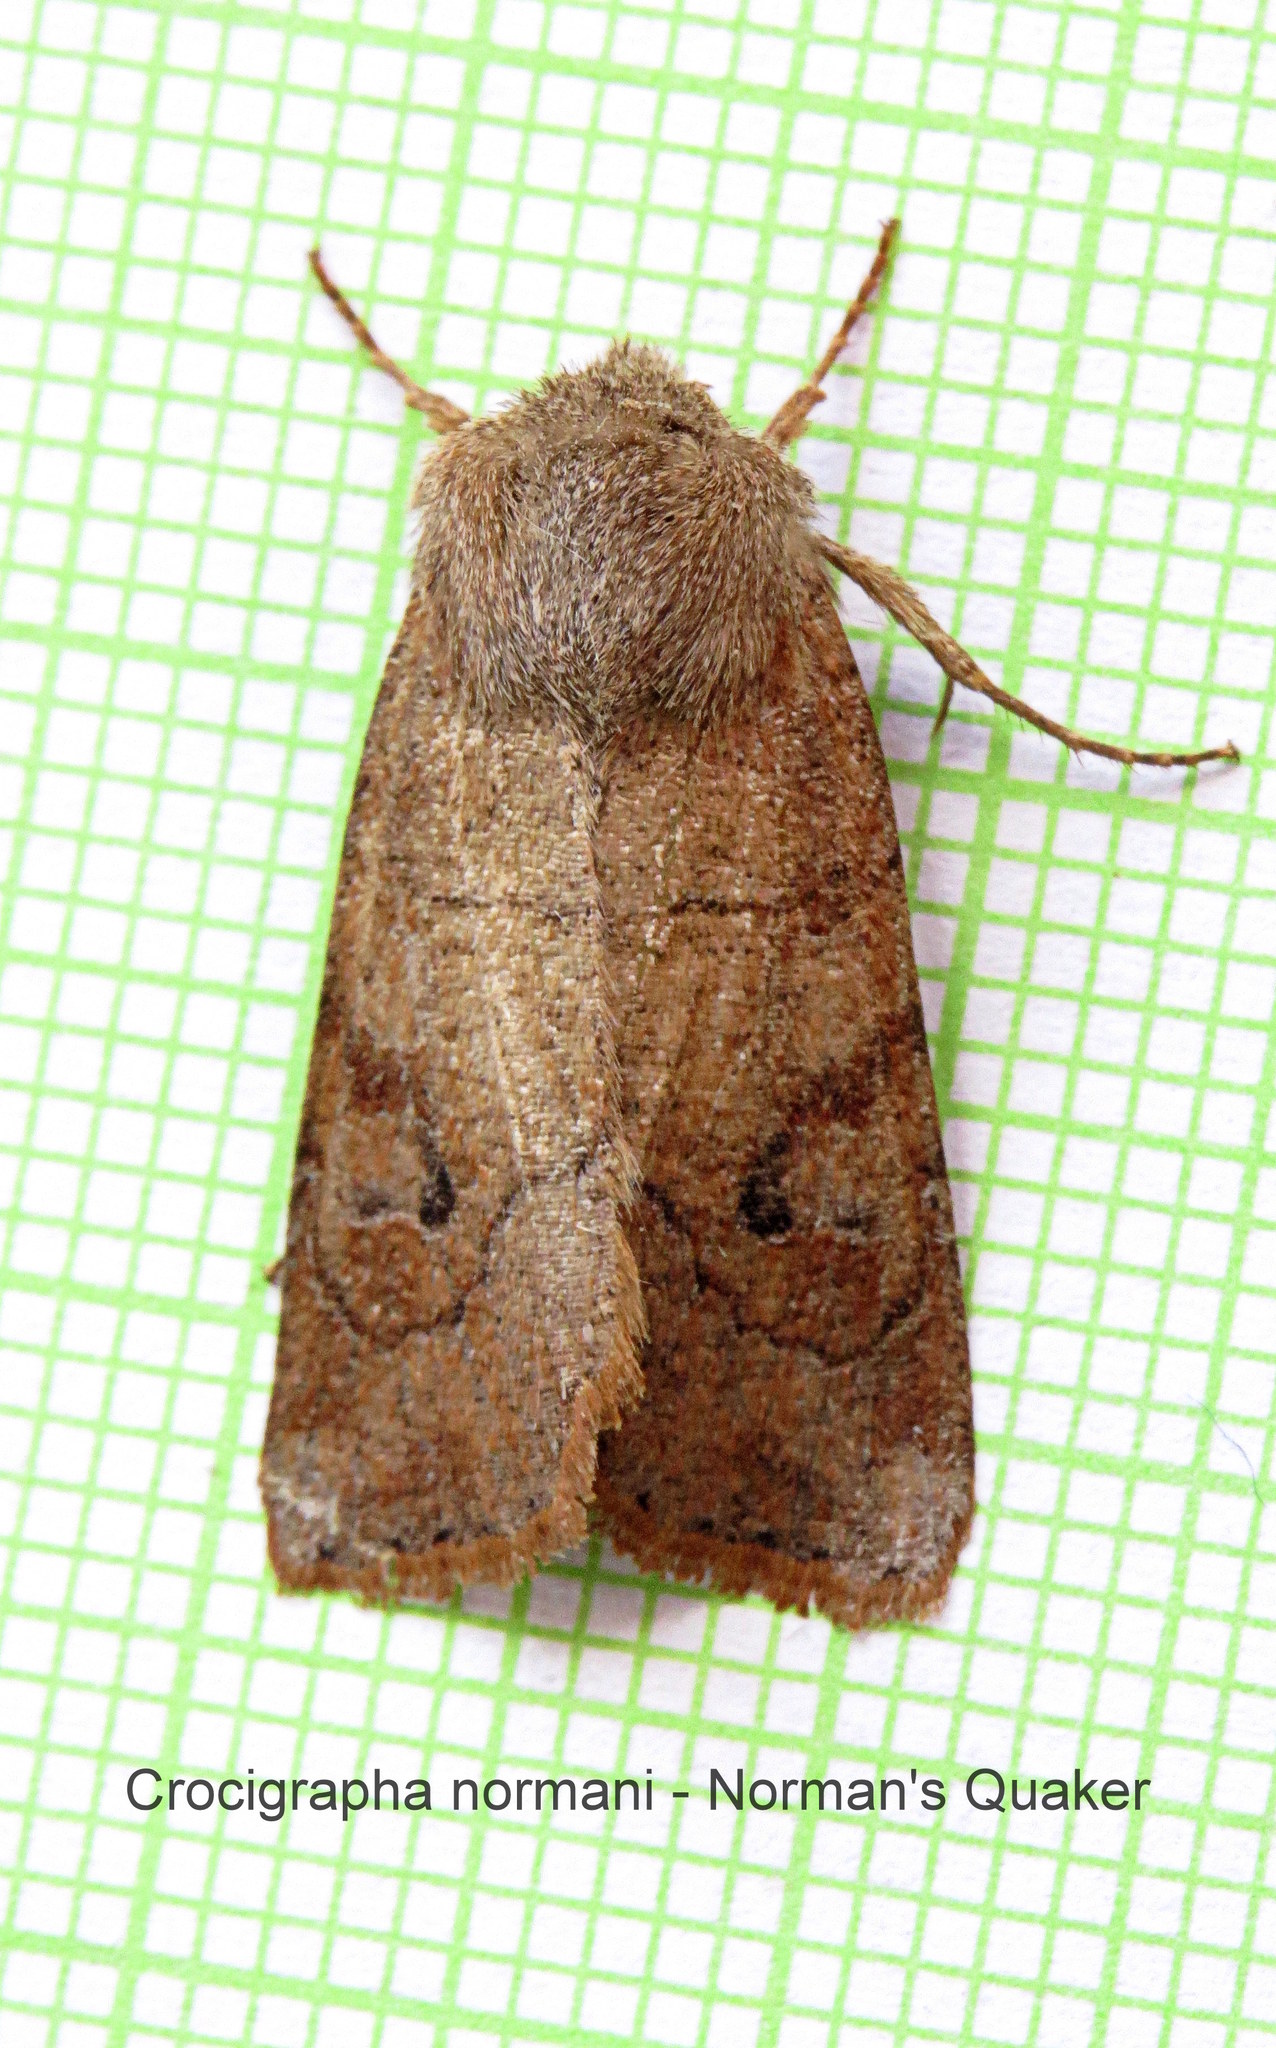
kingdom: Animalia
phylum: Arthropoda
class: Insecta
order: Lepidoptera
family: Noctuidae
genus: Crocigrapha
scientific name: Crocigrapha normani
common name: Norman's quaker
